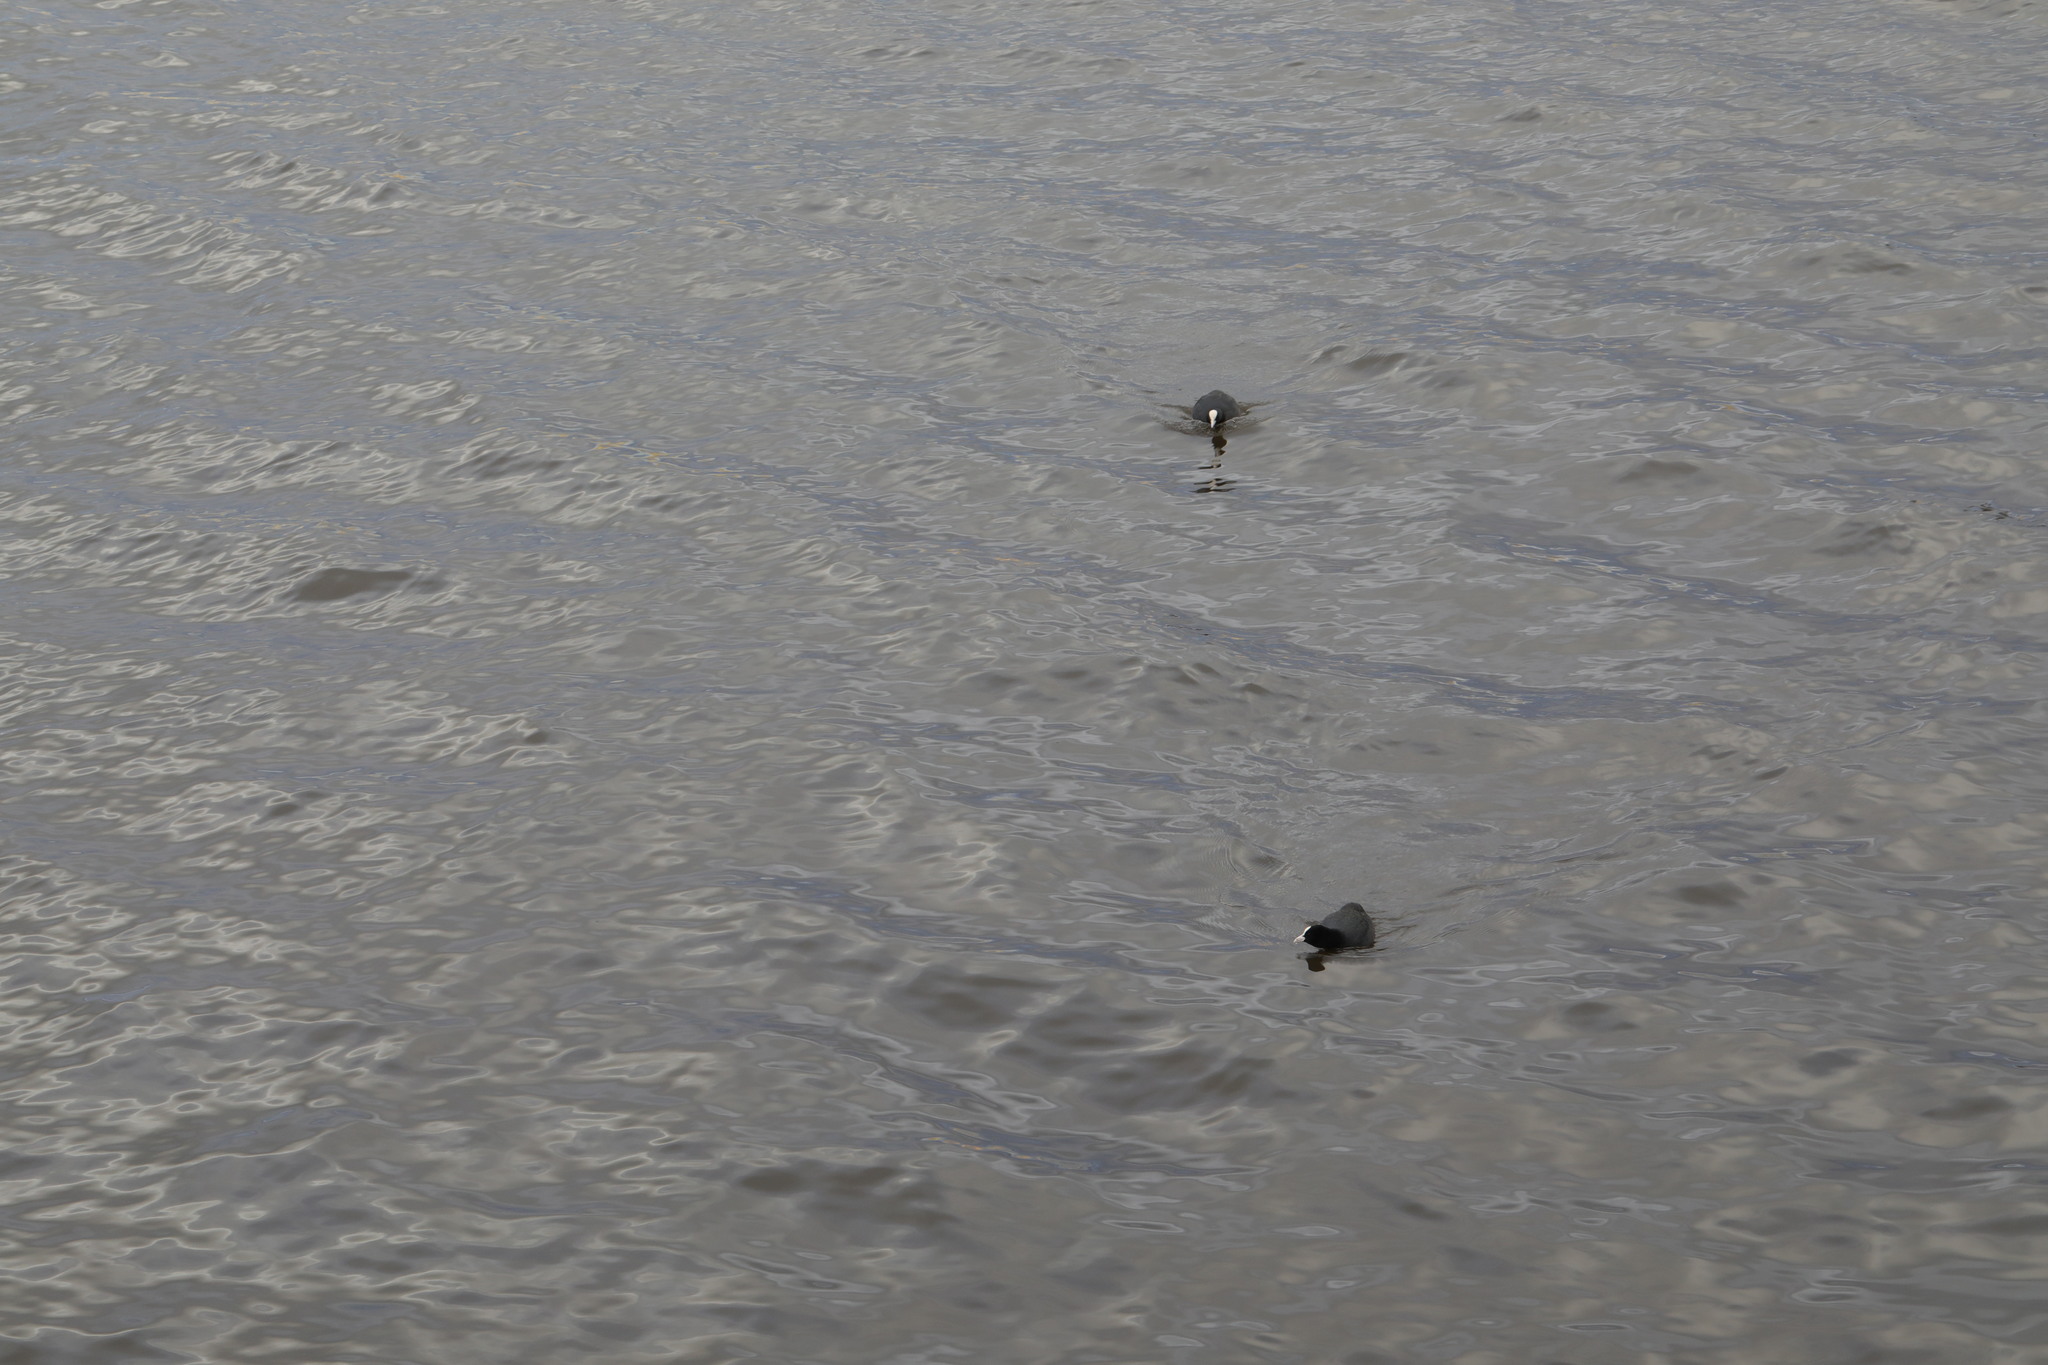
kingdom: Animalia
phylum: Chordata
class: Aves
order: Gruiformes
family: Rallidae
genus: Fulica
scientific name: Fulica atra
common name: Eurasian coot
